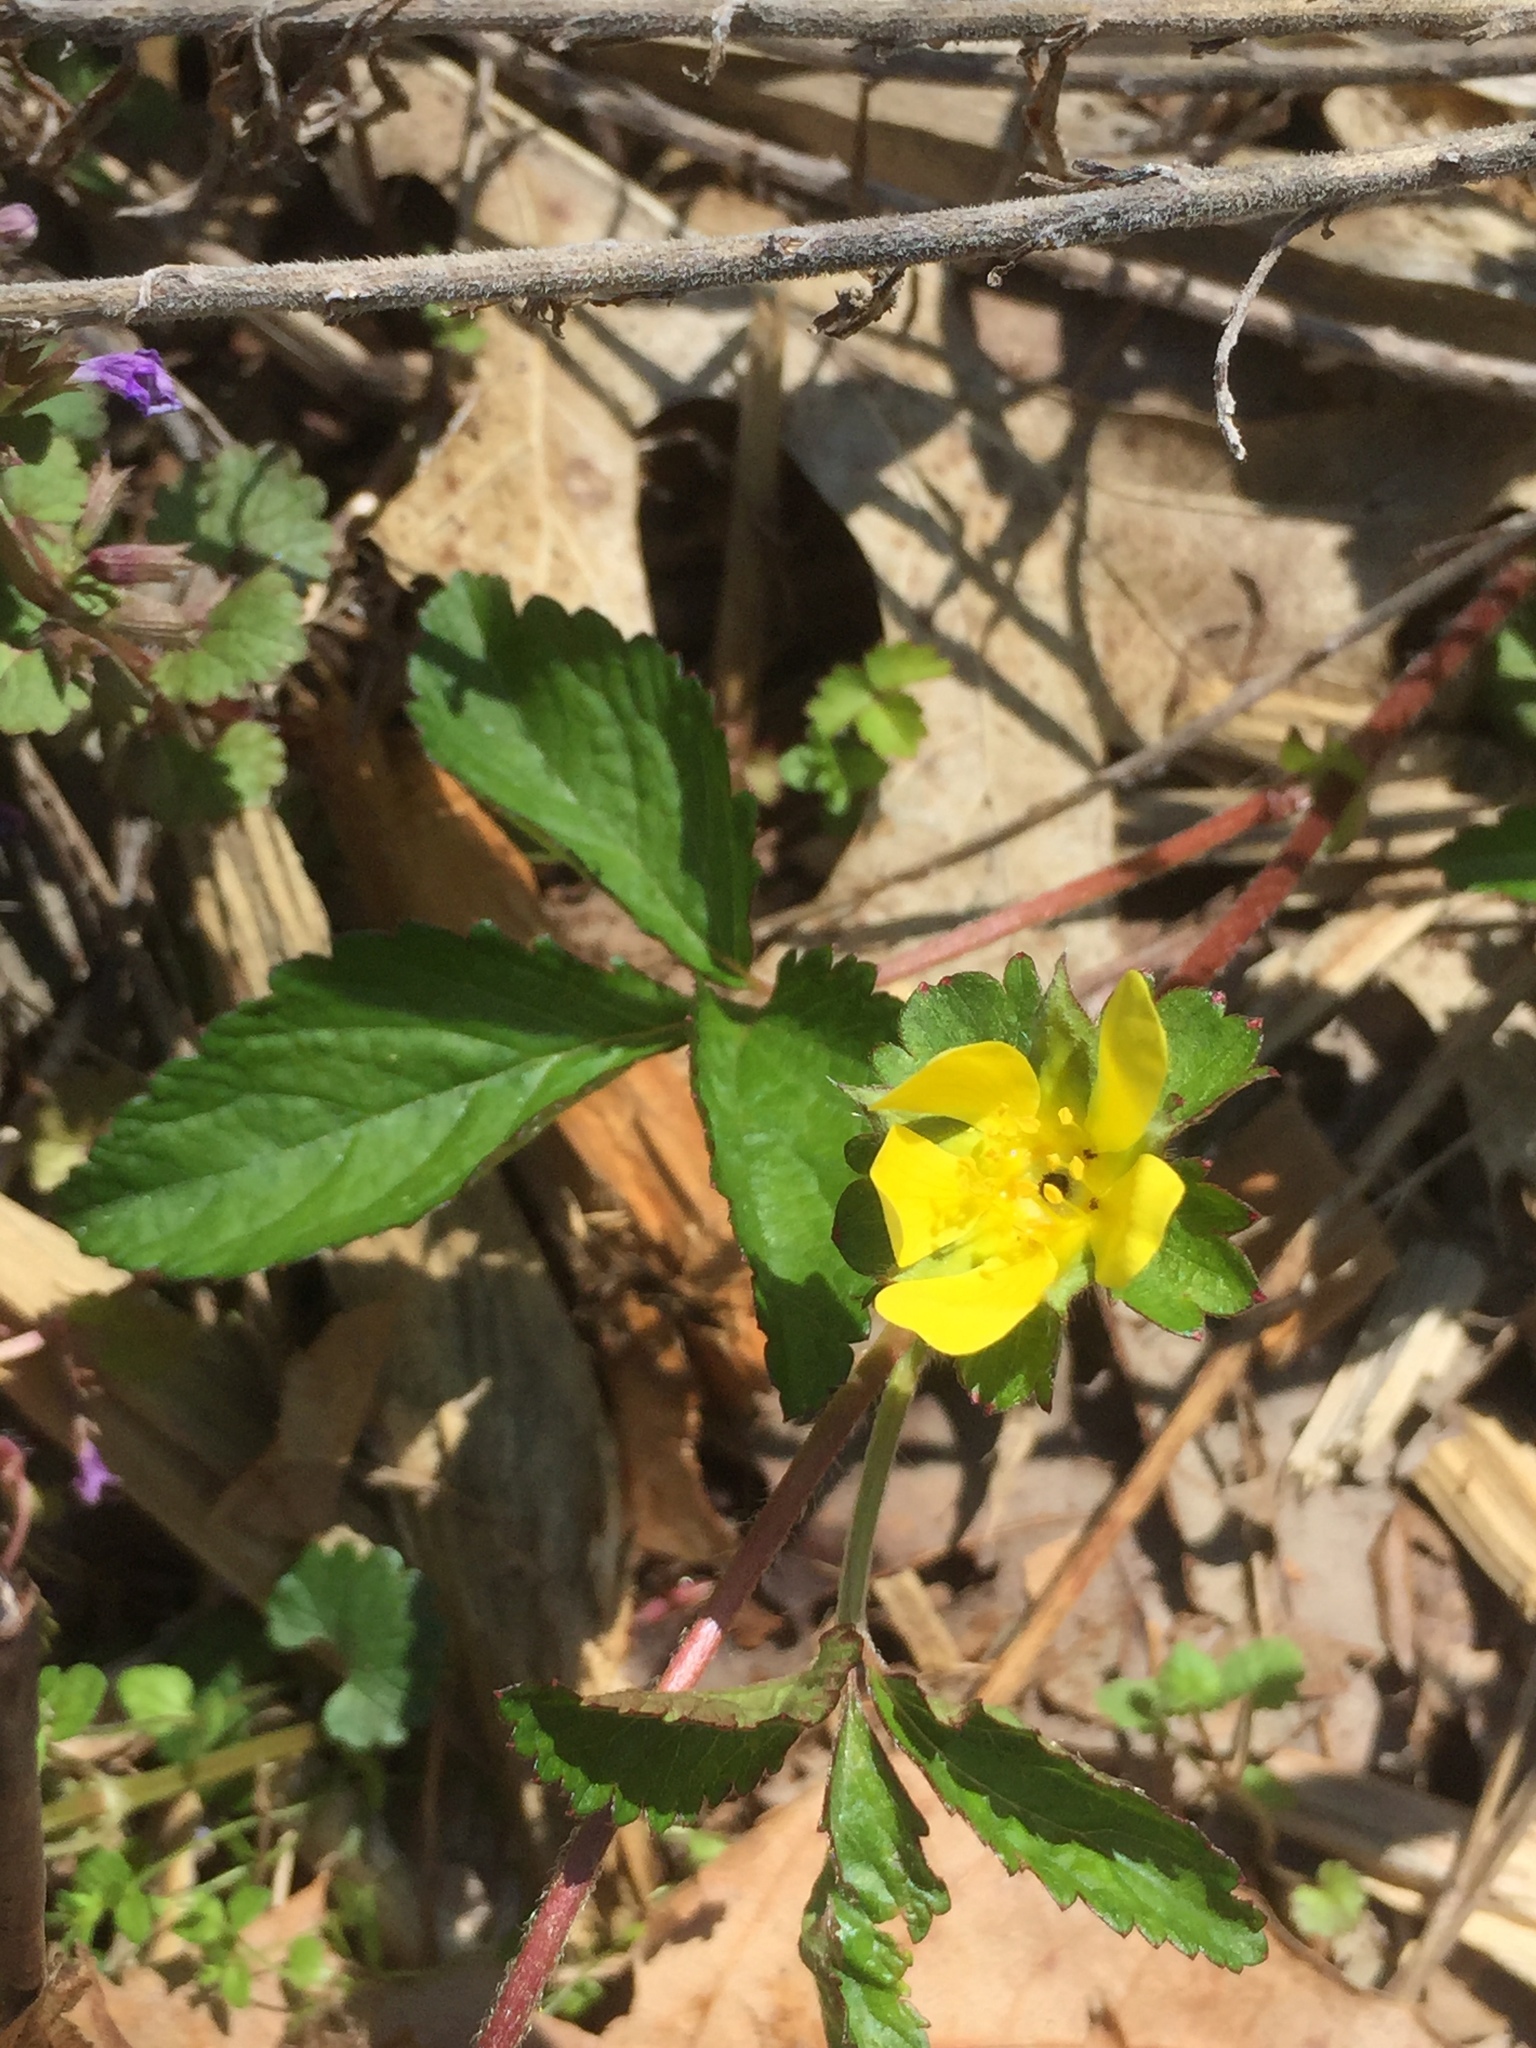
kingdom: Plantae
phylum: Tracheophyta
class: Magnoliopsida
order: Rosales
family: Rosaceae
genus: Potentilla
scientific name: Potentilla indica
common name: Yellow-flowered strawberry
